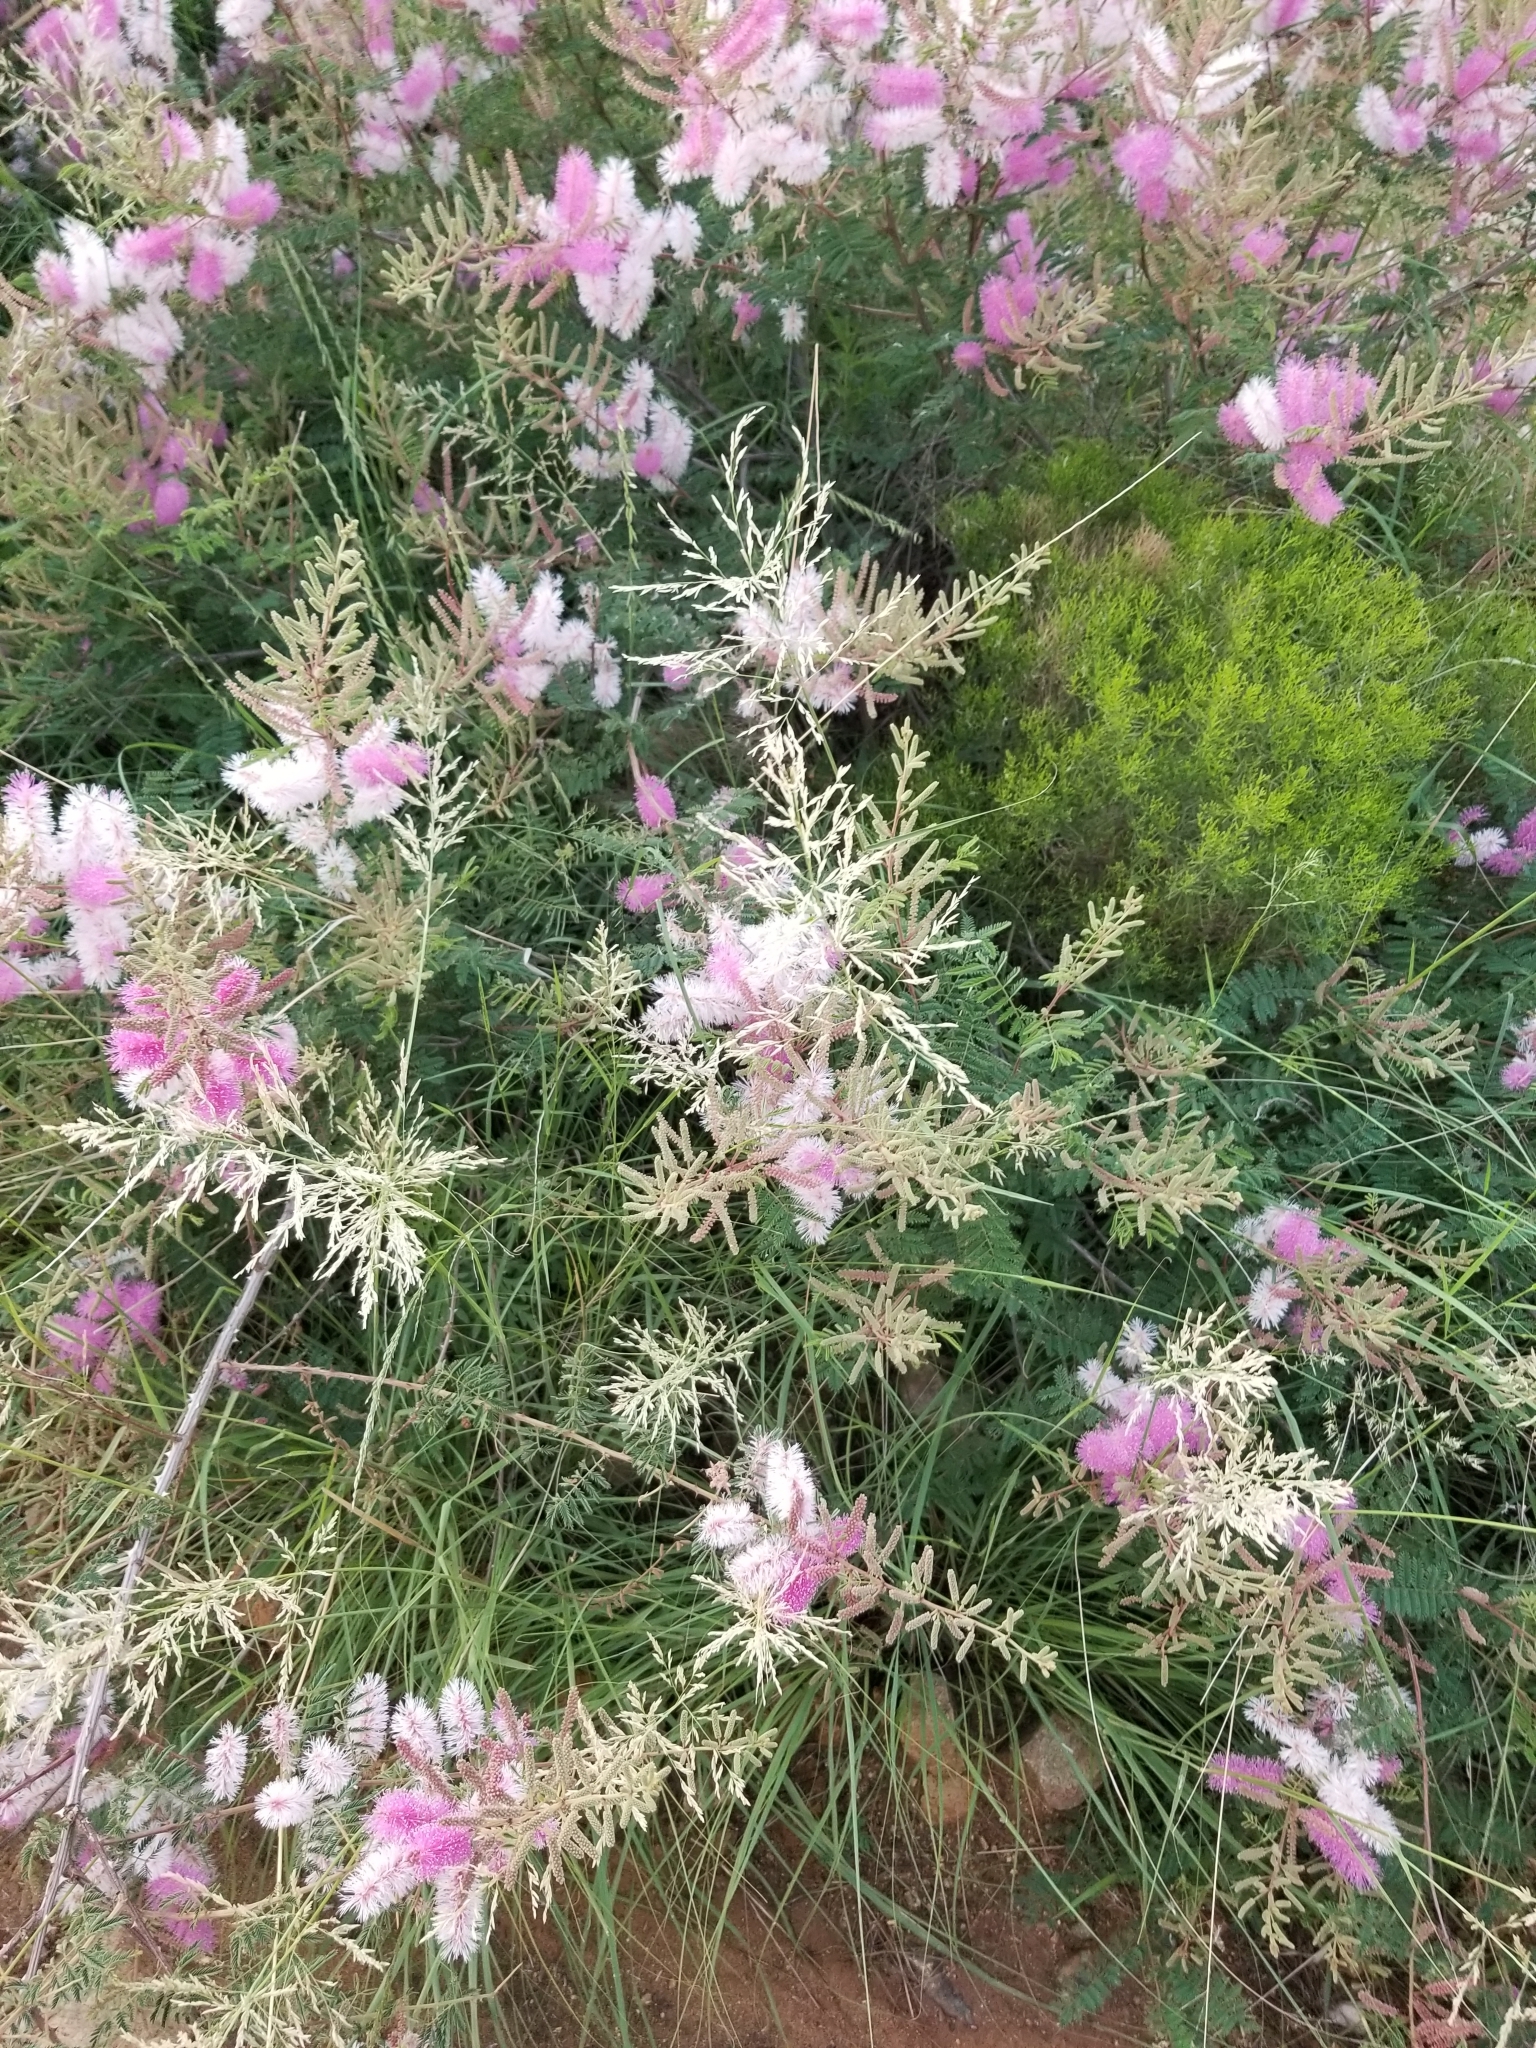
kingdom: Plantae
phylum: Tracheophyta
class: Magnoliopsida
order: Fabales
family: Fabaceae
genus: Mimosa
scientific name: Mimosa dysocarpa
